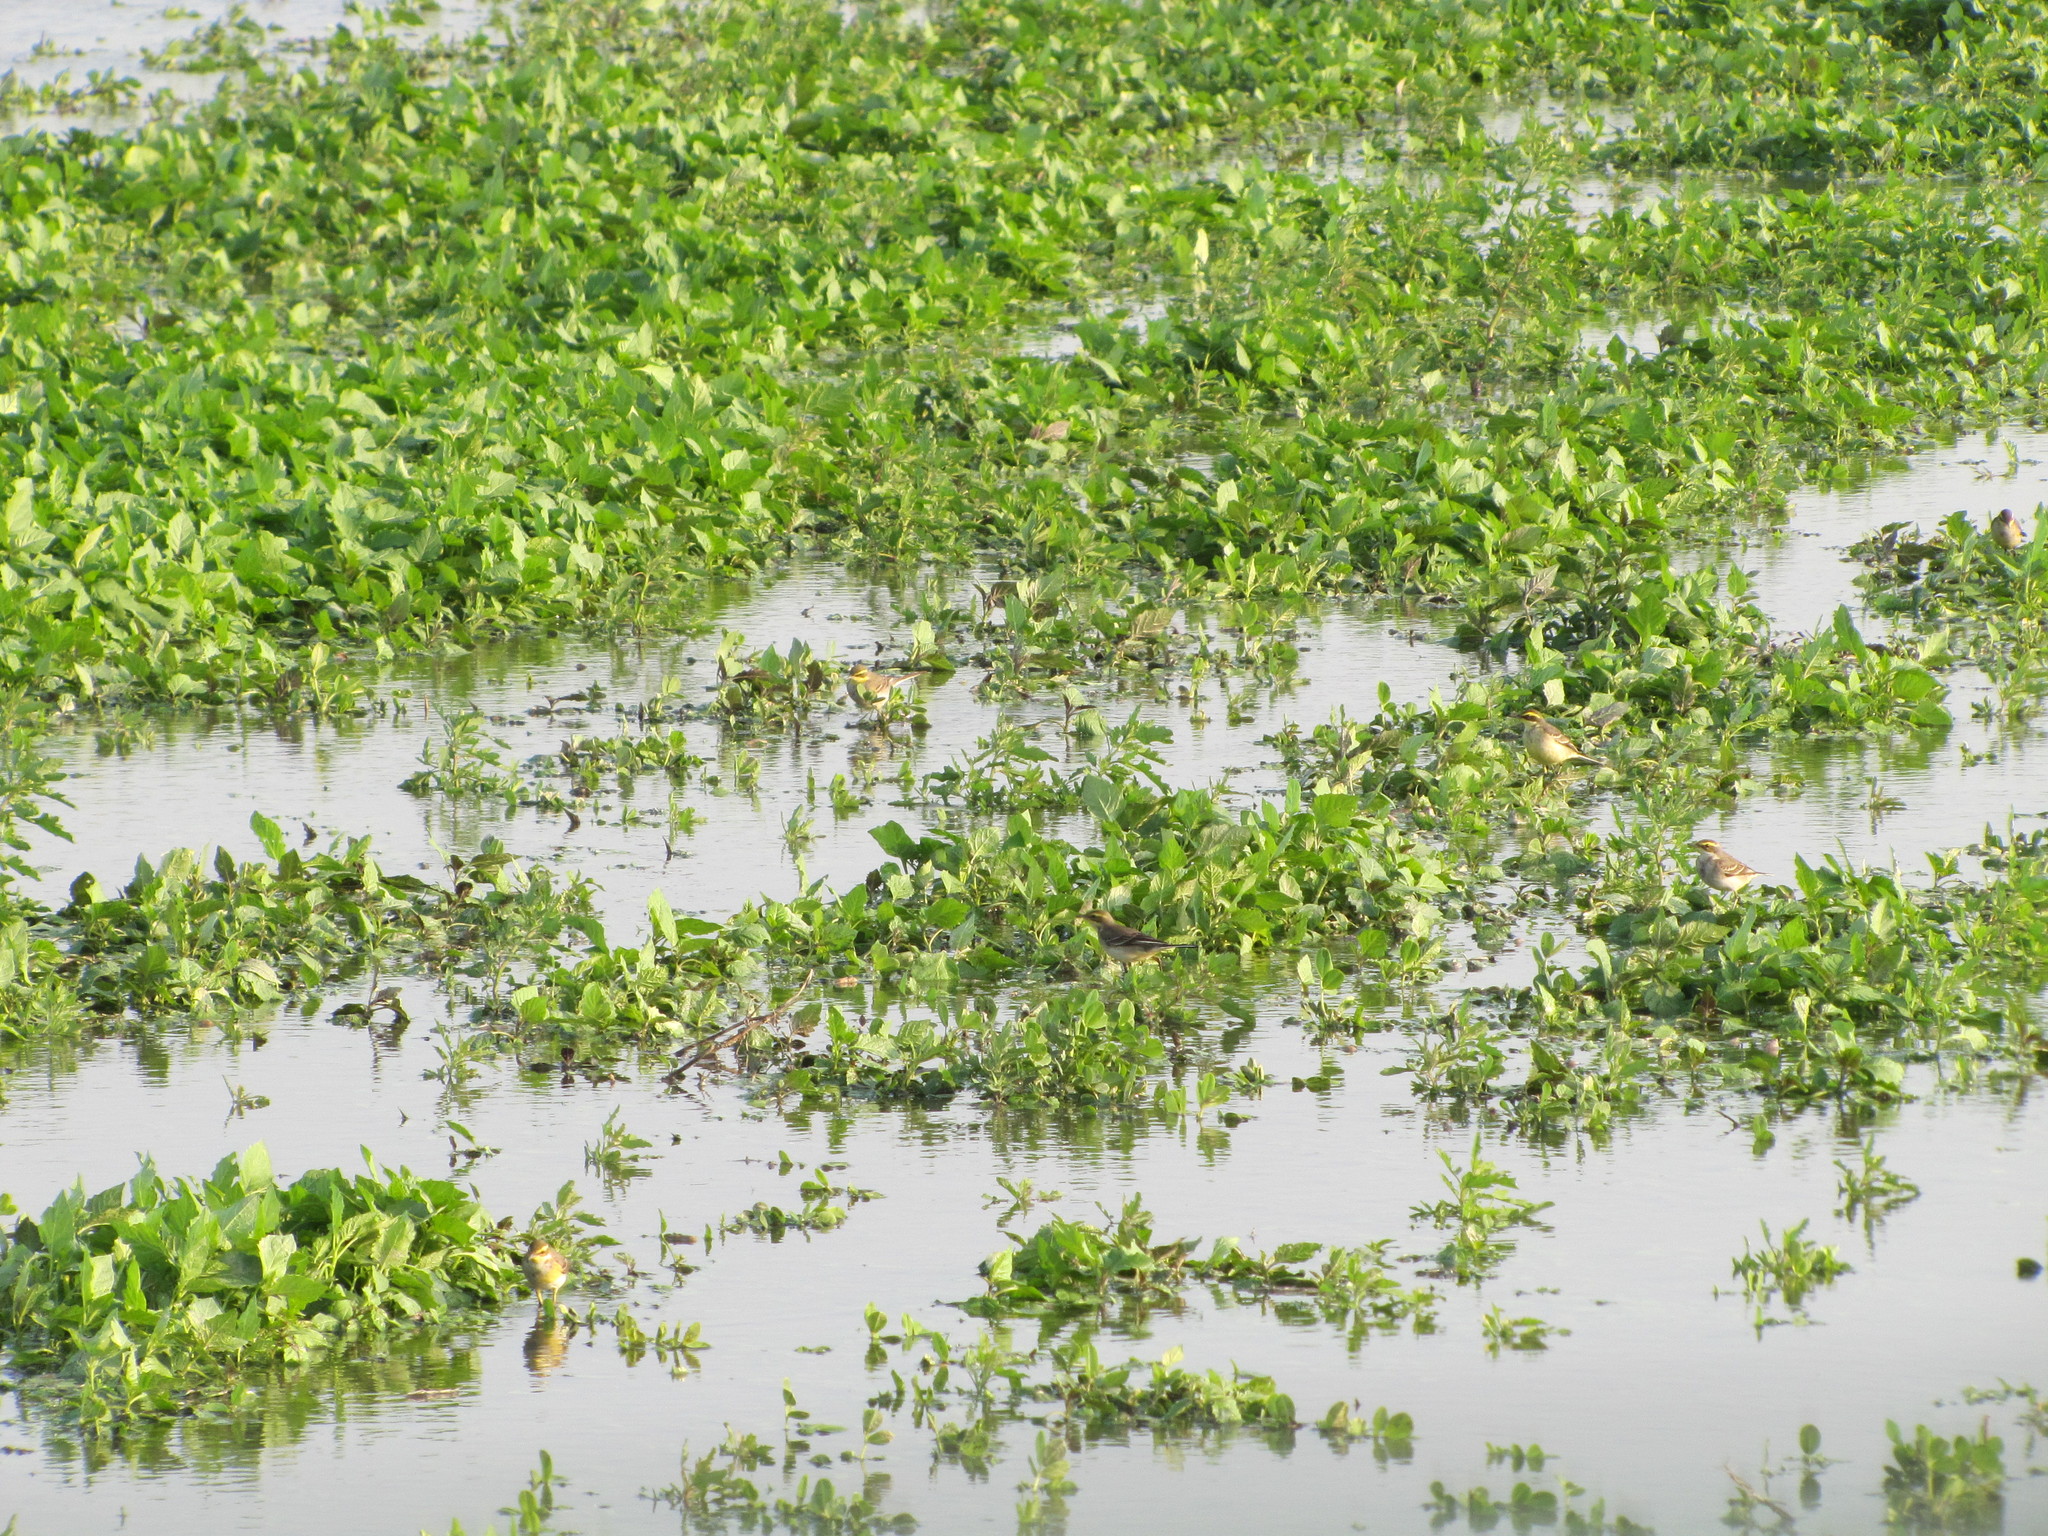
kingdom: Animalia
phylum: Chordata
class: Aves
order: Passeriformes
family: Motacillidae
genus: Motacilla
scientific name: Motacilla tschutschensis
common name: Eastern yellow wagtail
